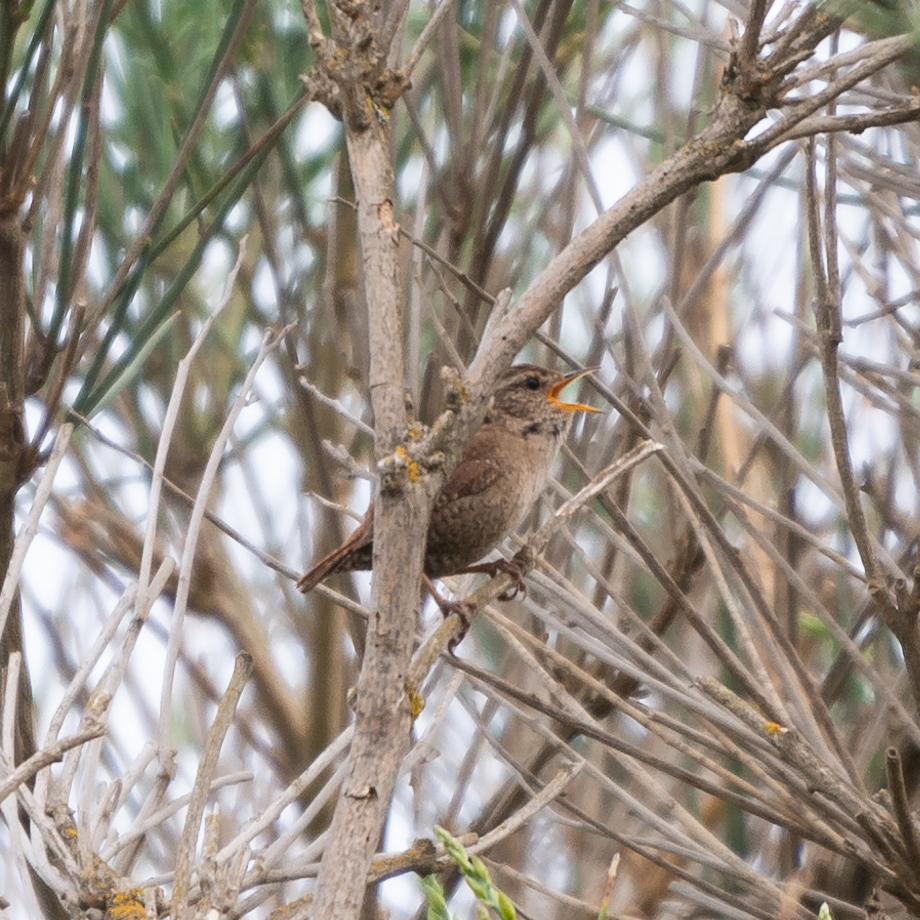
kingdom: Animalia
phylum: Chordata
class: Aves
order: Passeriformes
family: Troglodytidae
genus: Troglodytes
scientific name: Troglodytes troglodytes
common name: Eurasian wren
